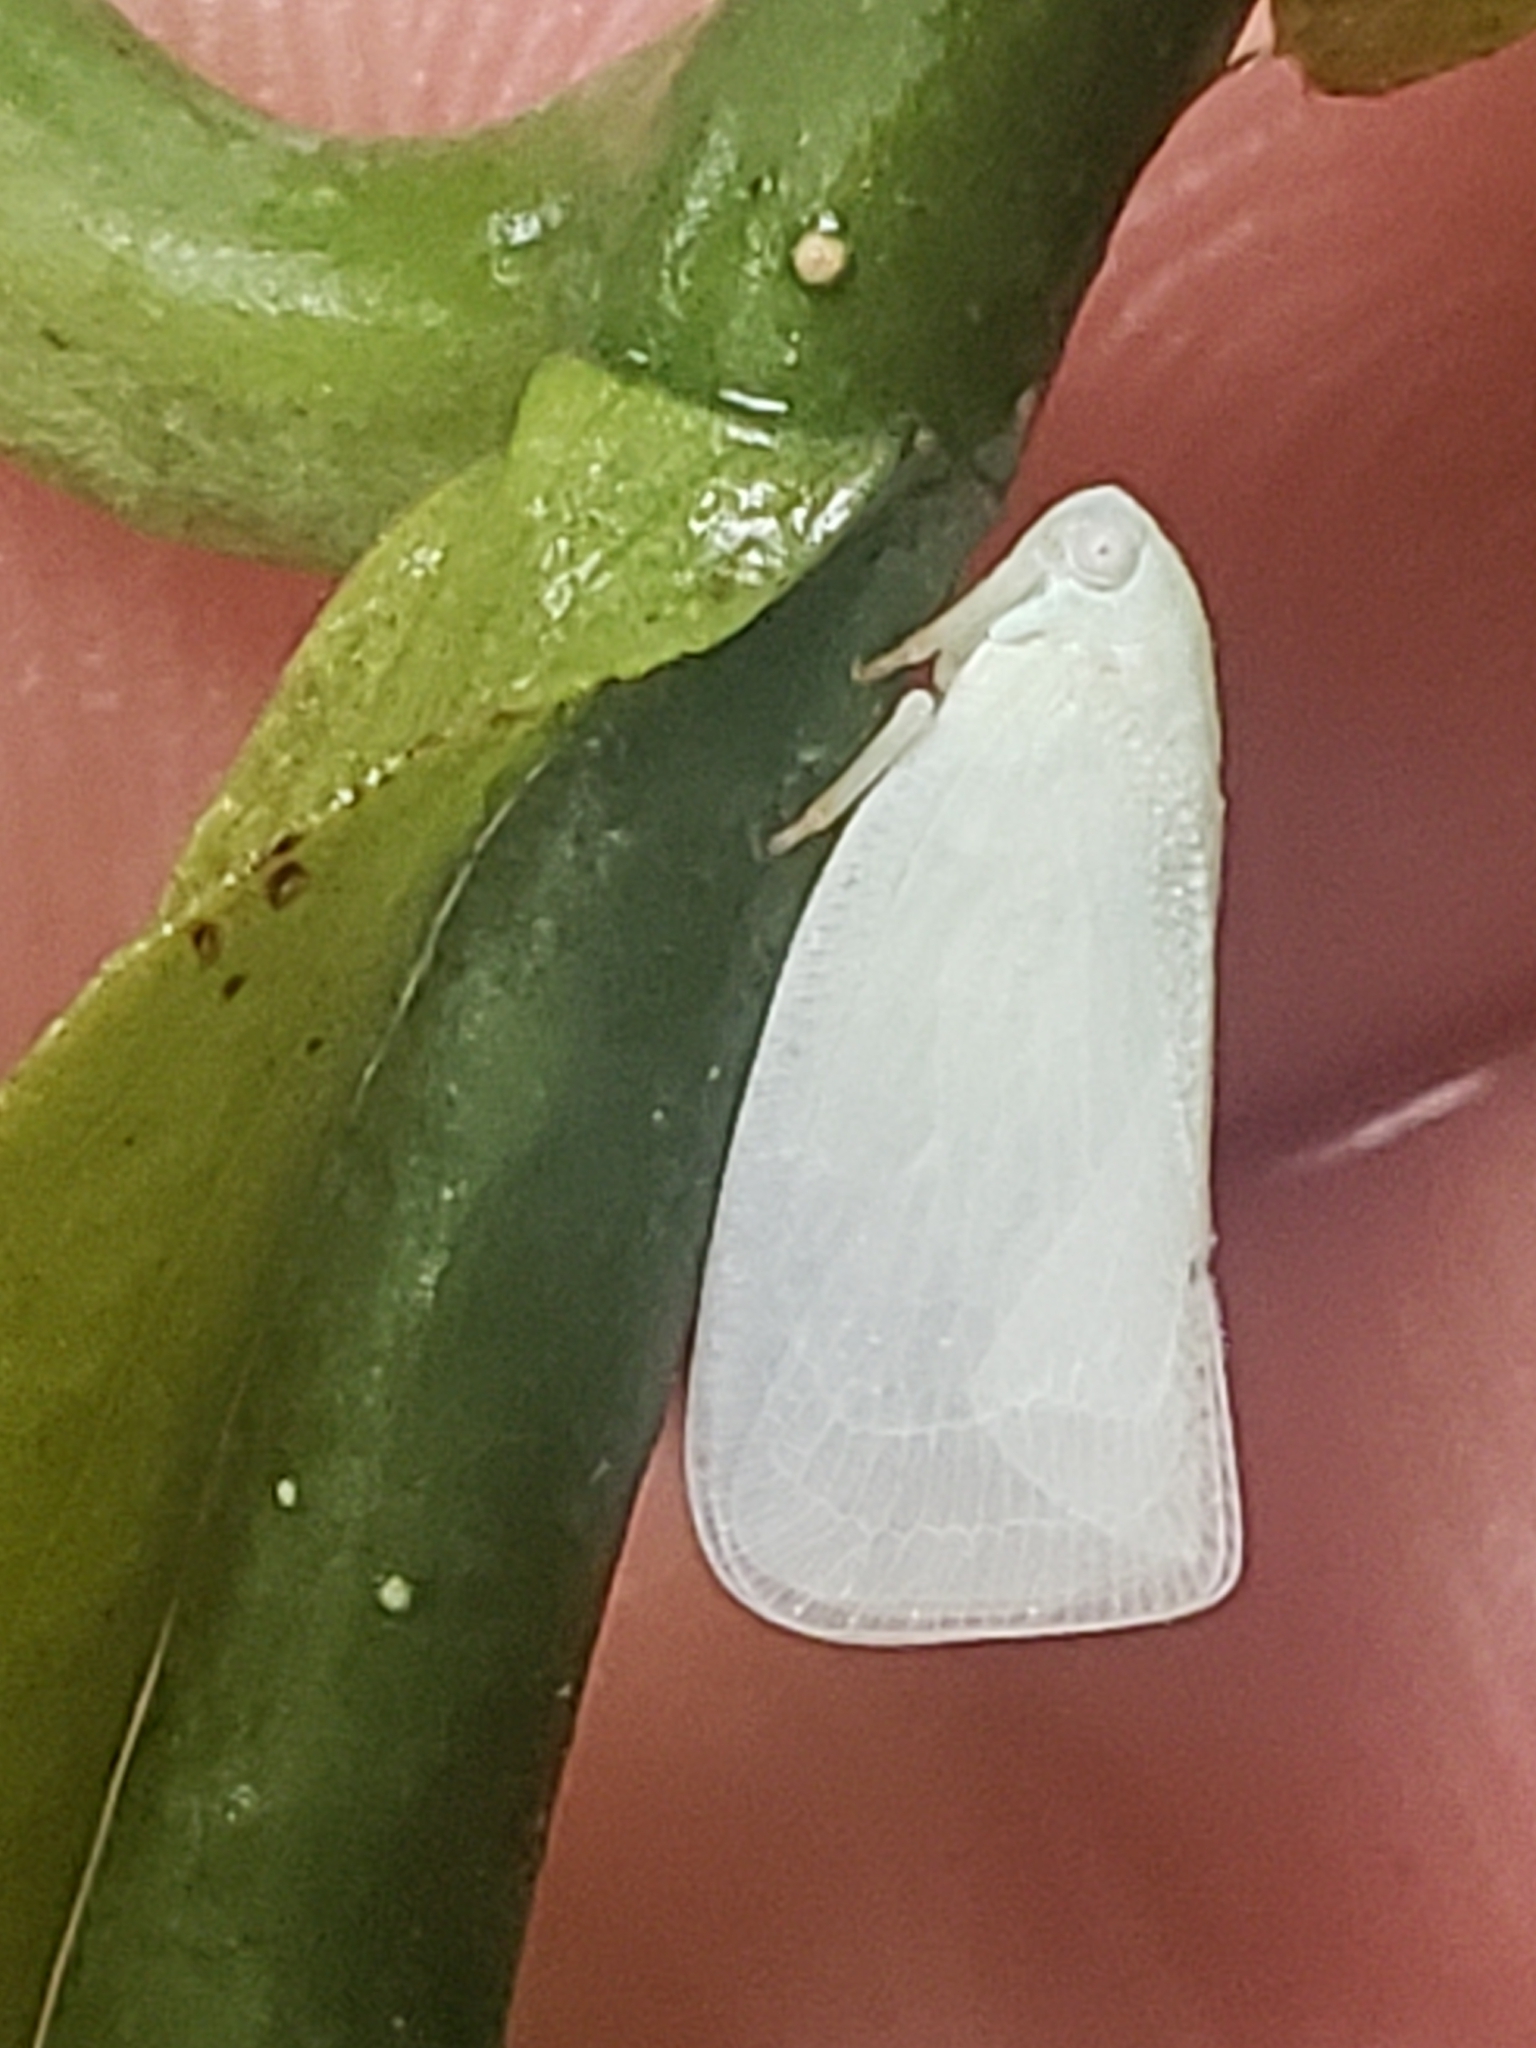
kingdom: Animalia
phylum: Arthropoda
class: Insecta
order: Hemiptera
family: Flatidae
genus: Flatormenis
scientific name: Flatormenis proxima
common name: Northern flatid planthopper
